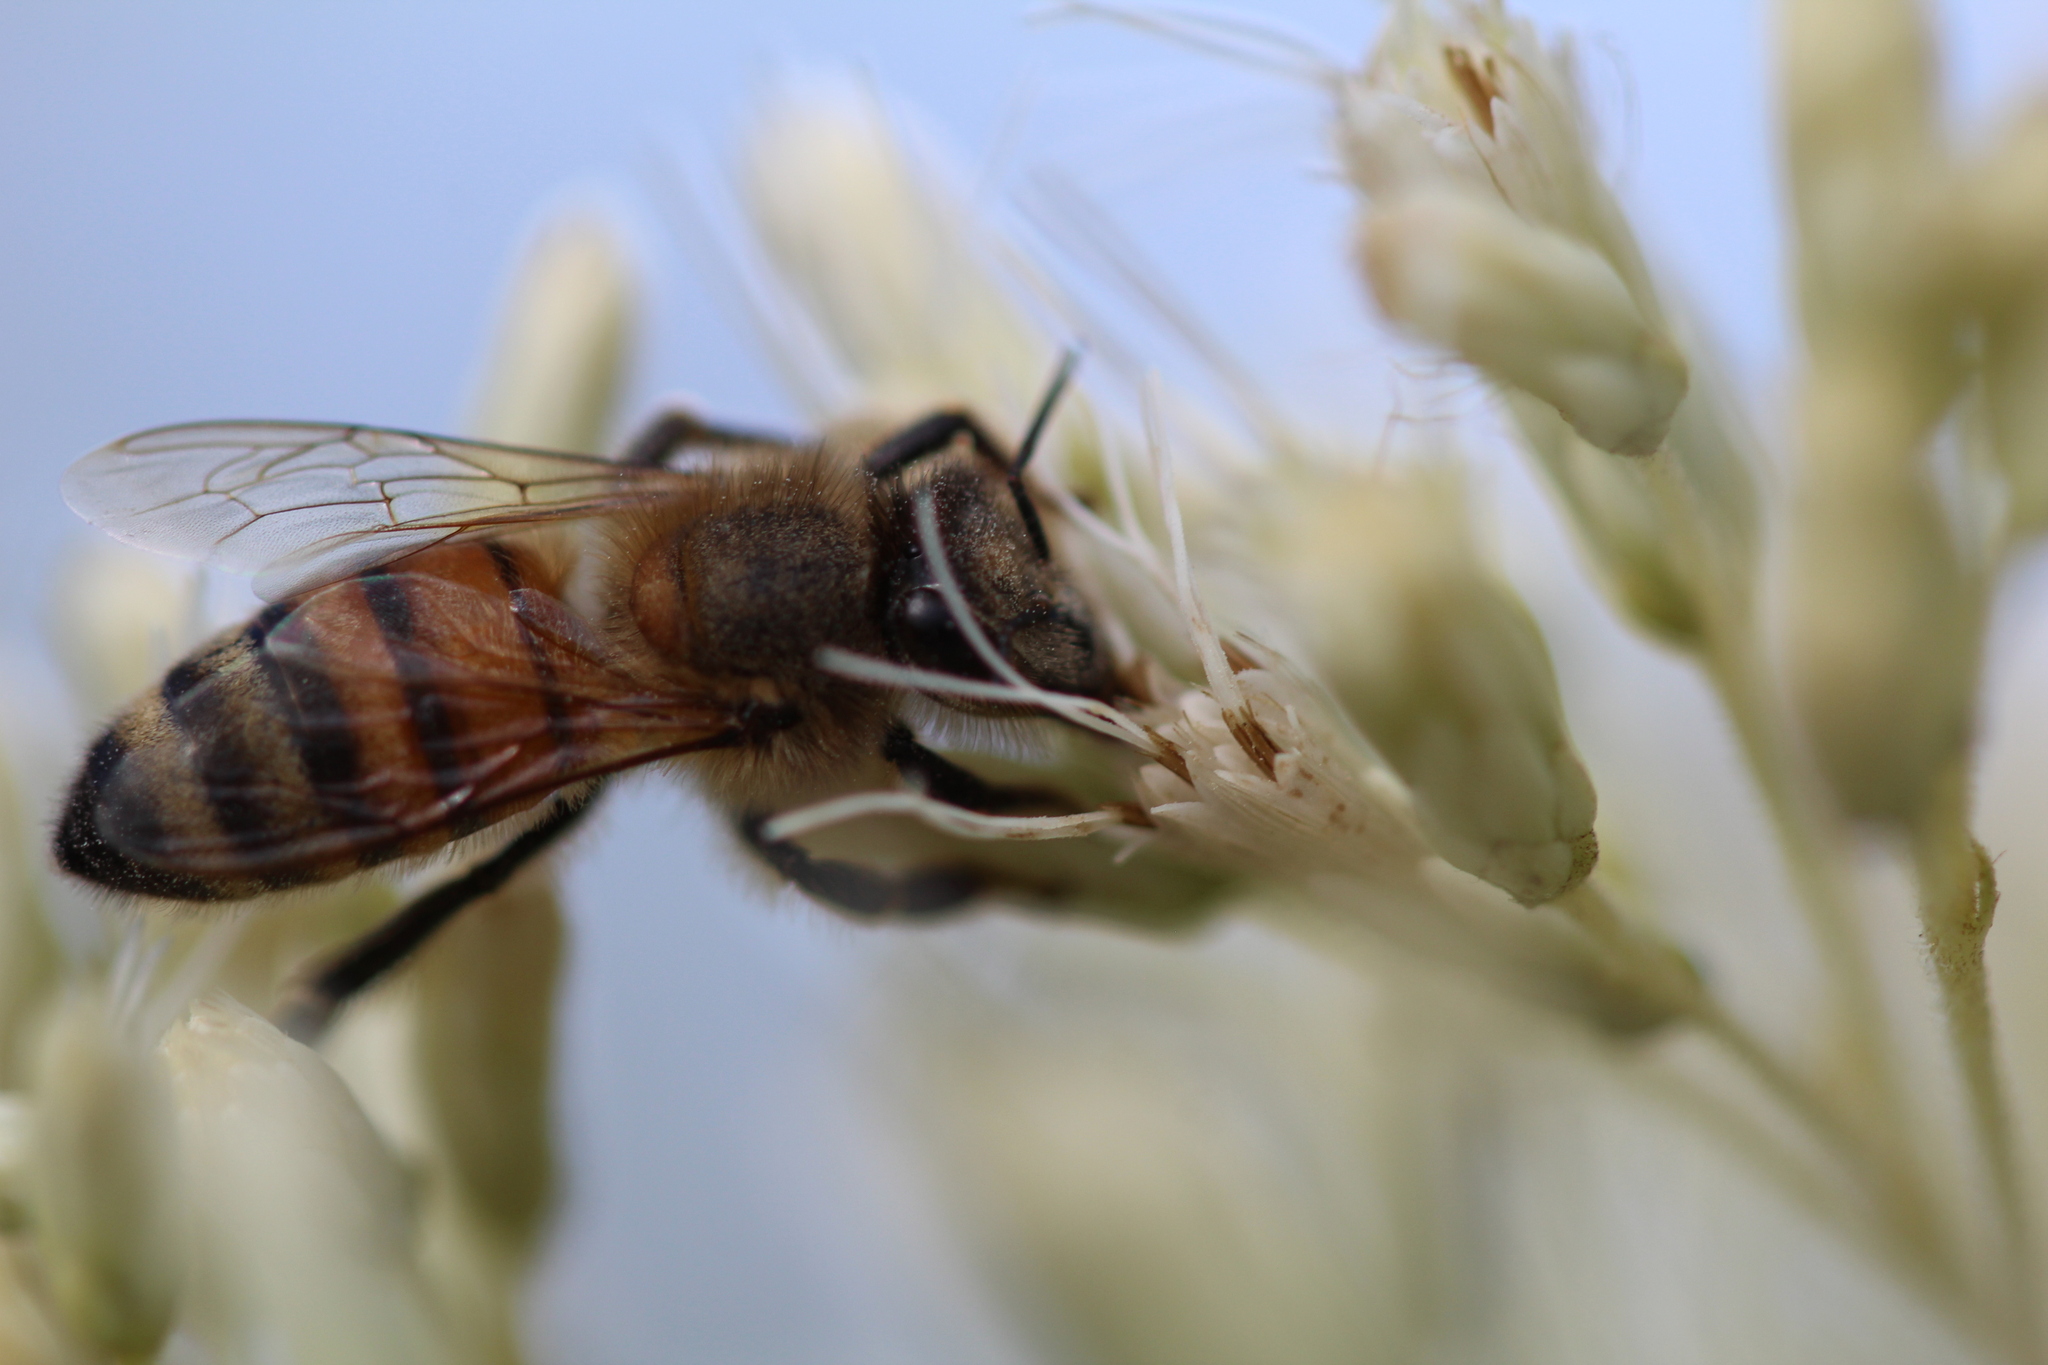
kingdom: Animalia
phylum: Arthropoda
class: Insecta
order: Hymenoptera
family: Apidae
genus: Apis
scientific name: Apis mellifera
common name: Honey bee
